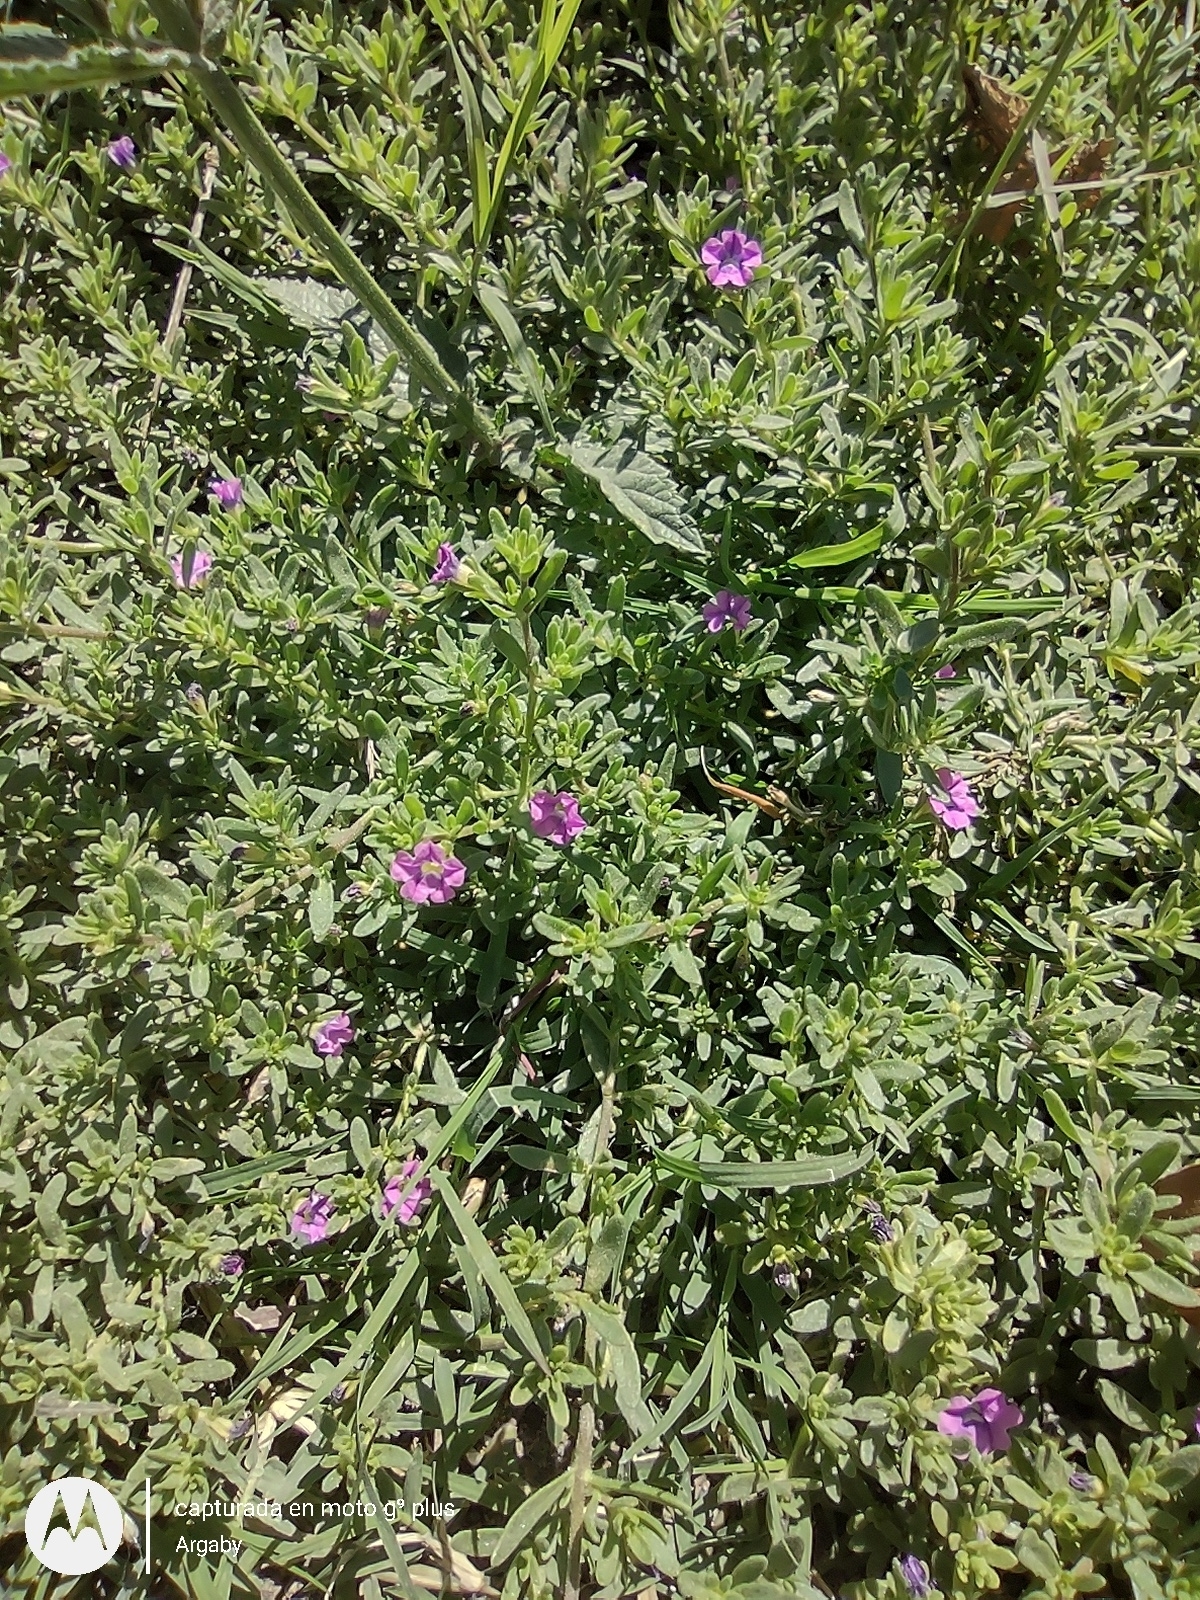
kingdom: Plantae
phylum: Tracheophyta
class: Magnoliopsida
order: Solanales
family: Solanaceae
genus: Calibrachoa
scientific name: Calibrachoa parviflora
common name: Seaside petunia
